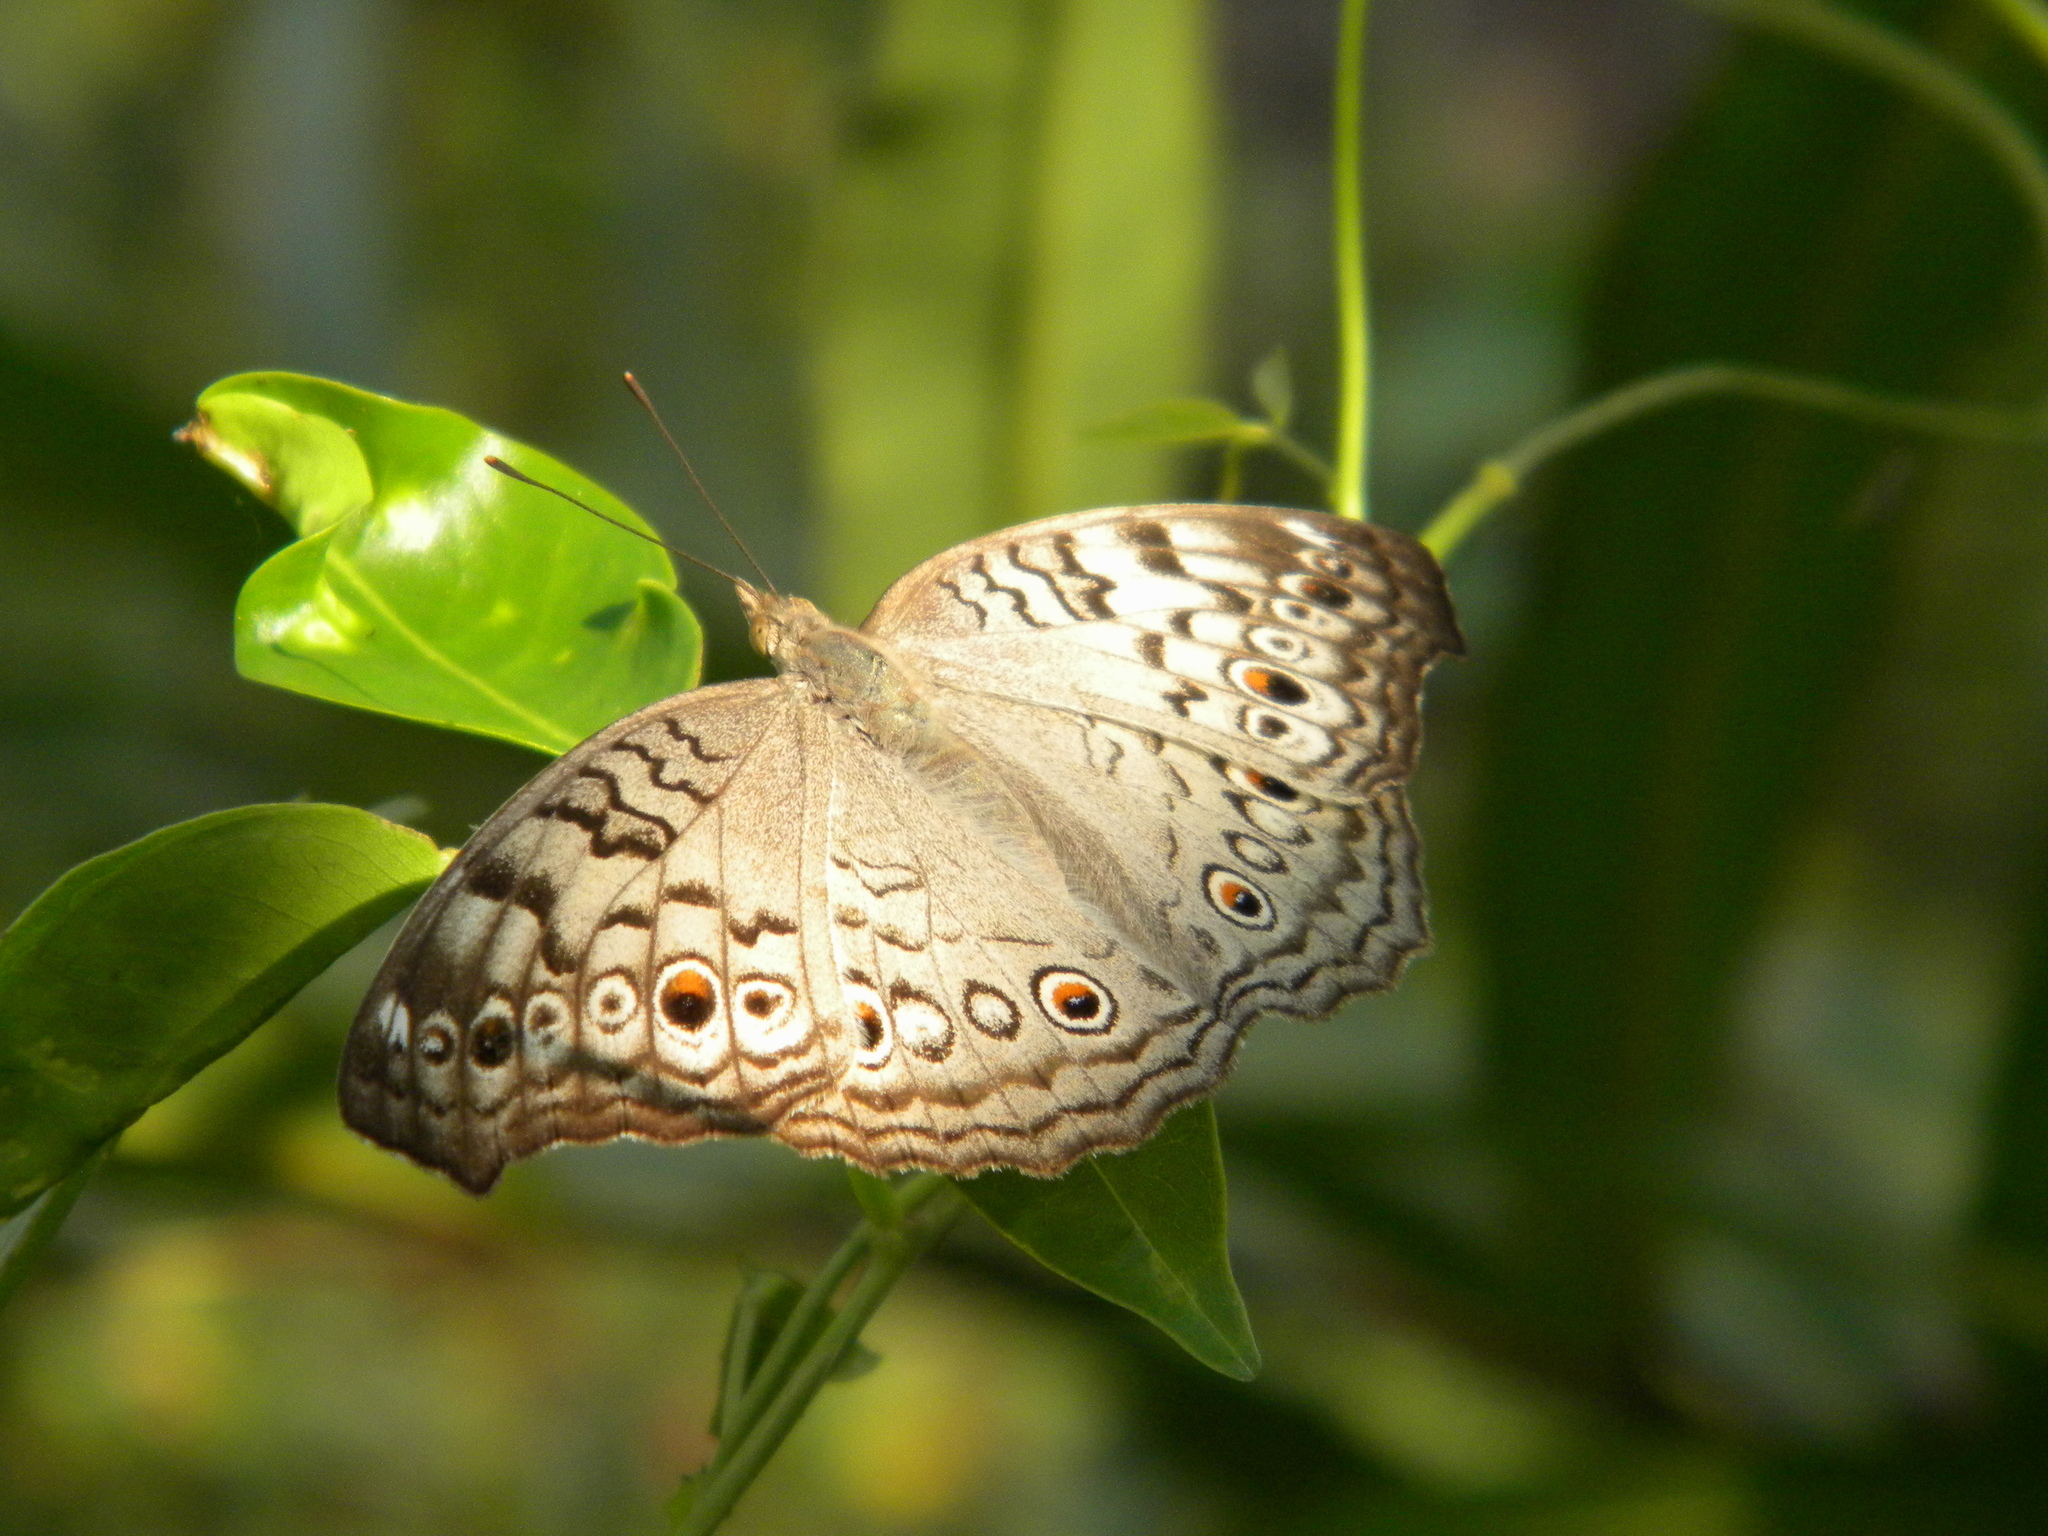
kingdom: Animalia
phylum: Arthropoda
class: Insecta
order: Lepidoptera
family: Nymphalidae
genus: Junonia
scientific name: Junonia atlites
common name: Grey pansy
